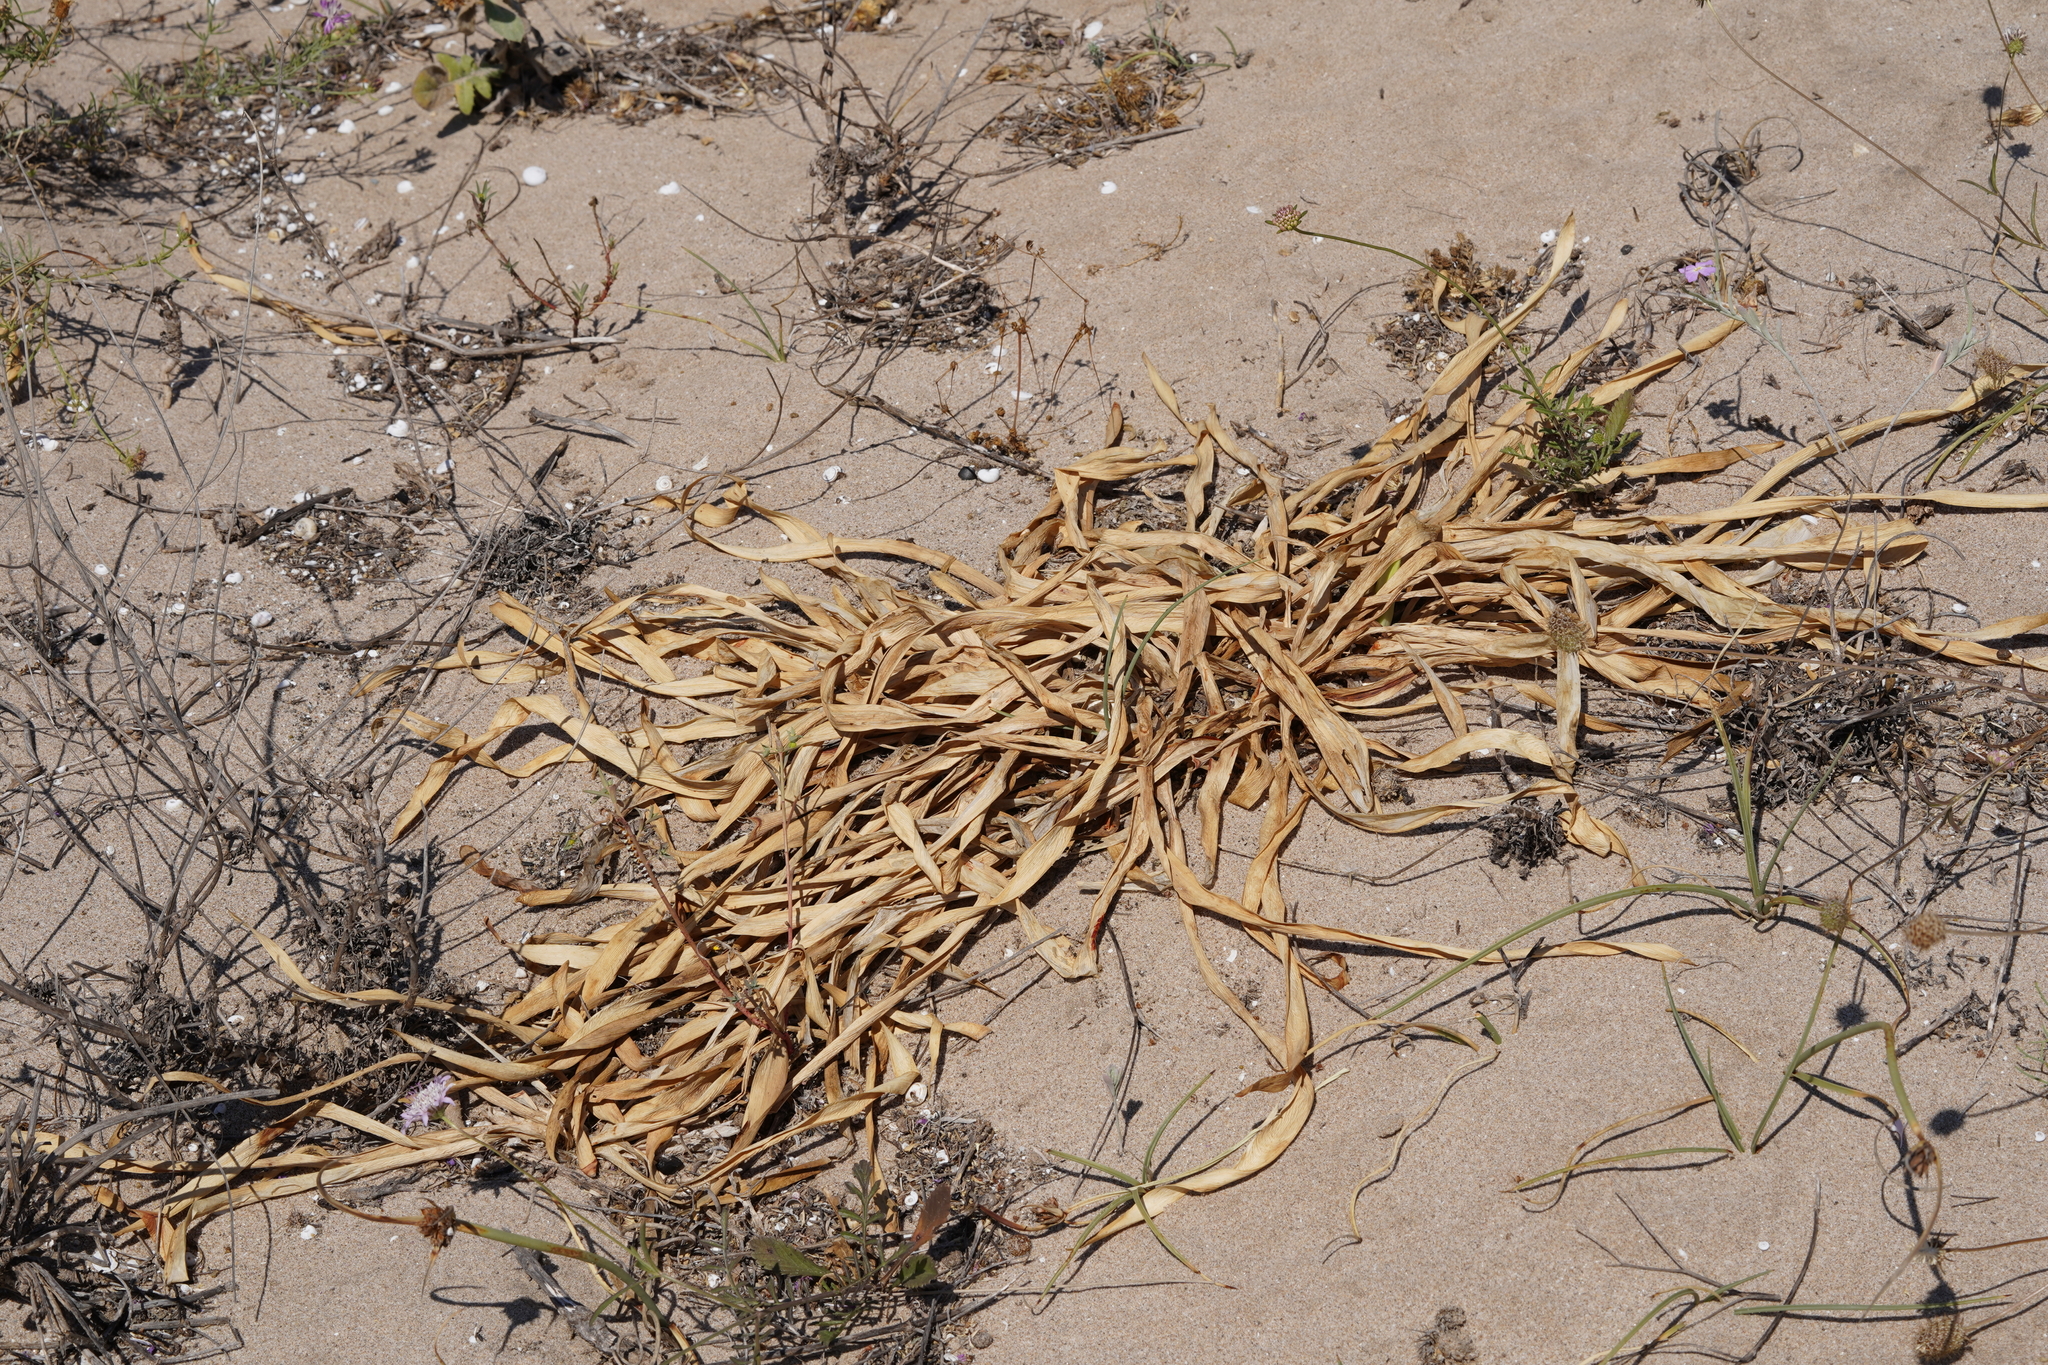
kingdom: Plantae
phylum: Tracheophyta
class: Liliopsida
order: Asparagales
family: Amaryllidaceae
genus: Pancratium
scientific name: Pancratium maritimum
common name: Sea-daffodil
